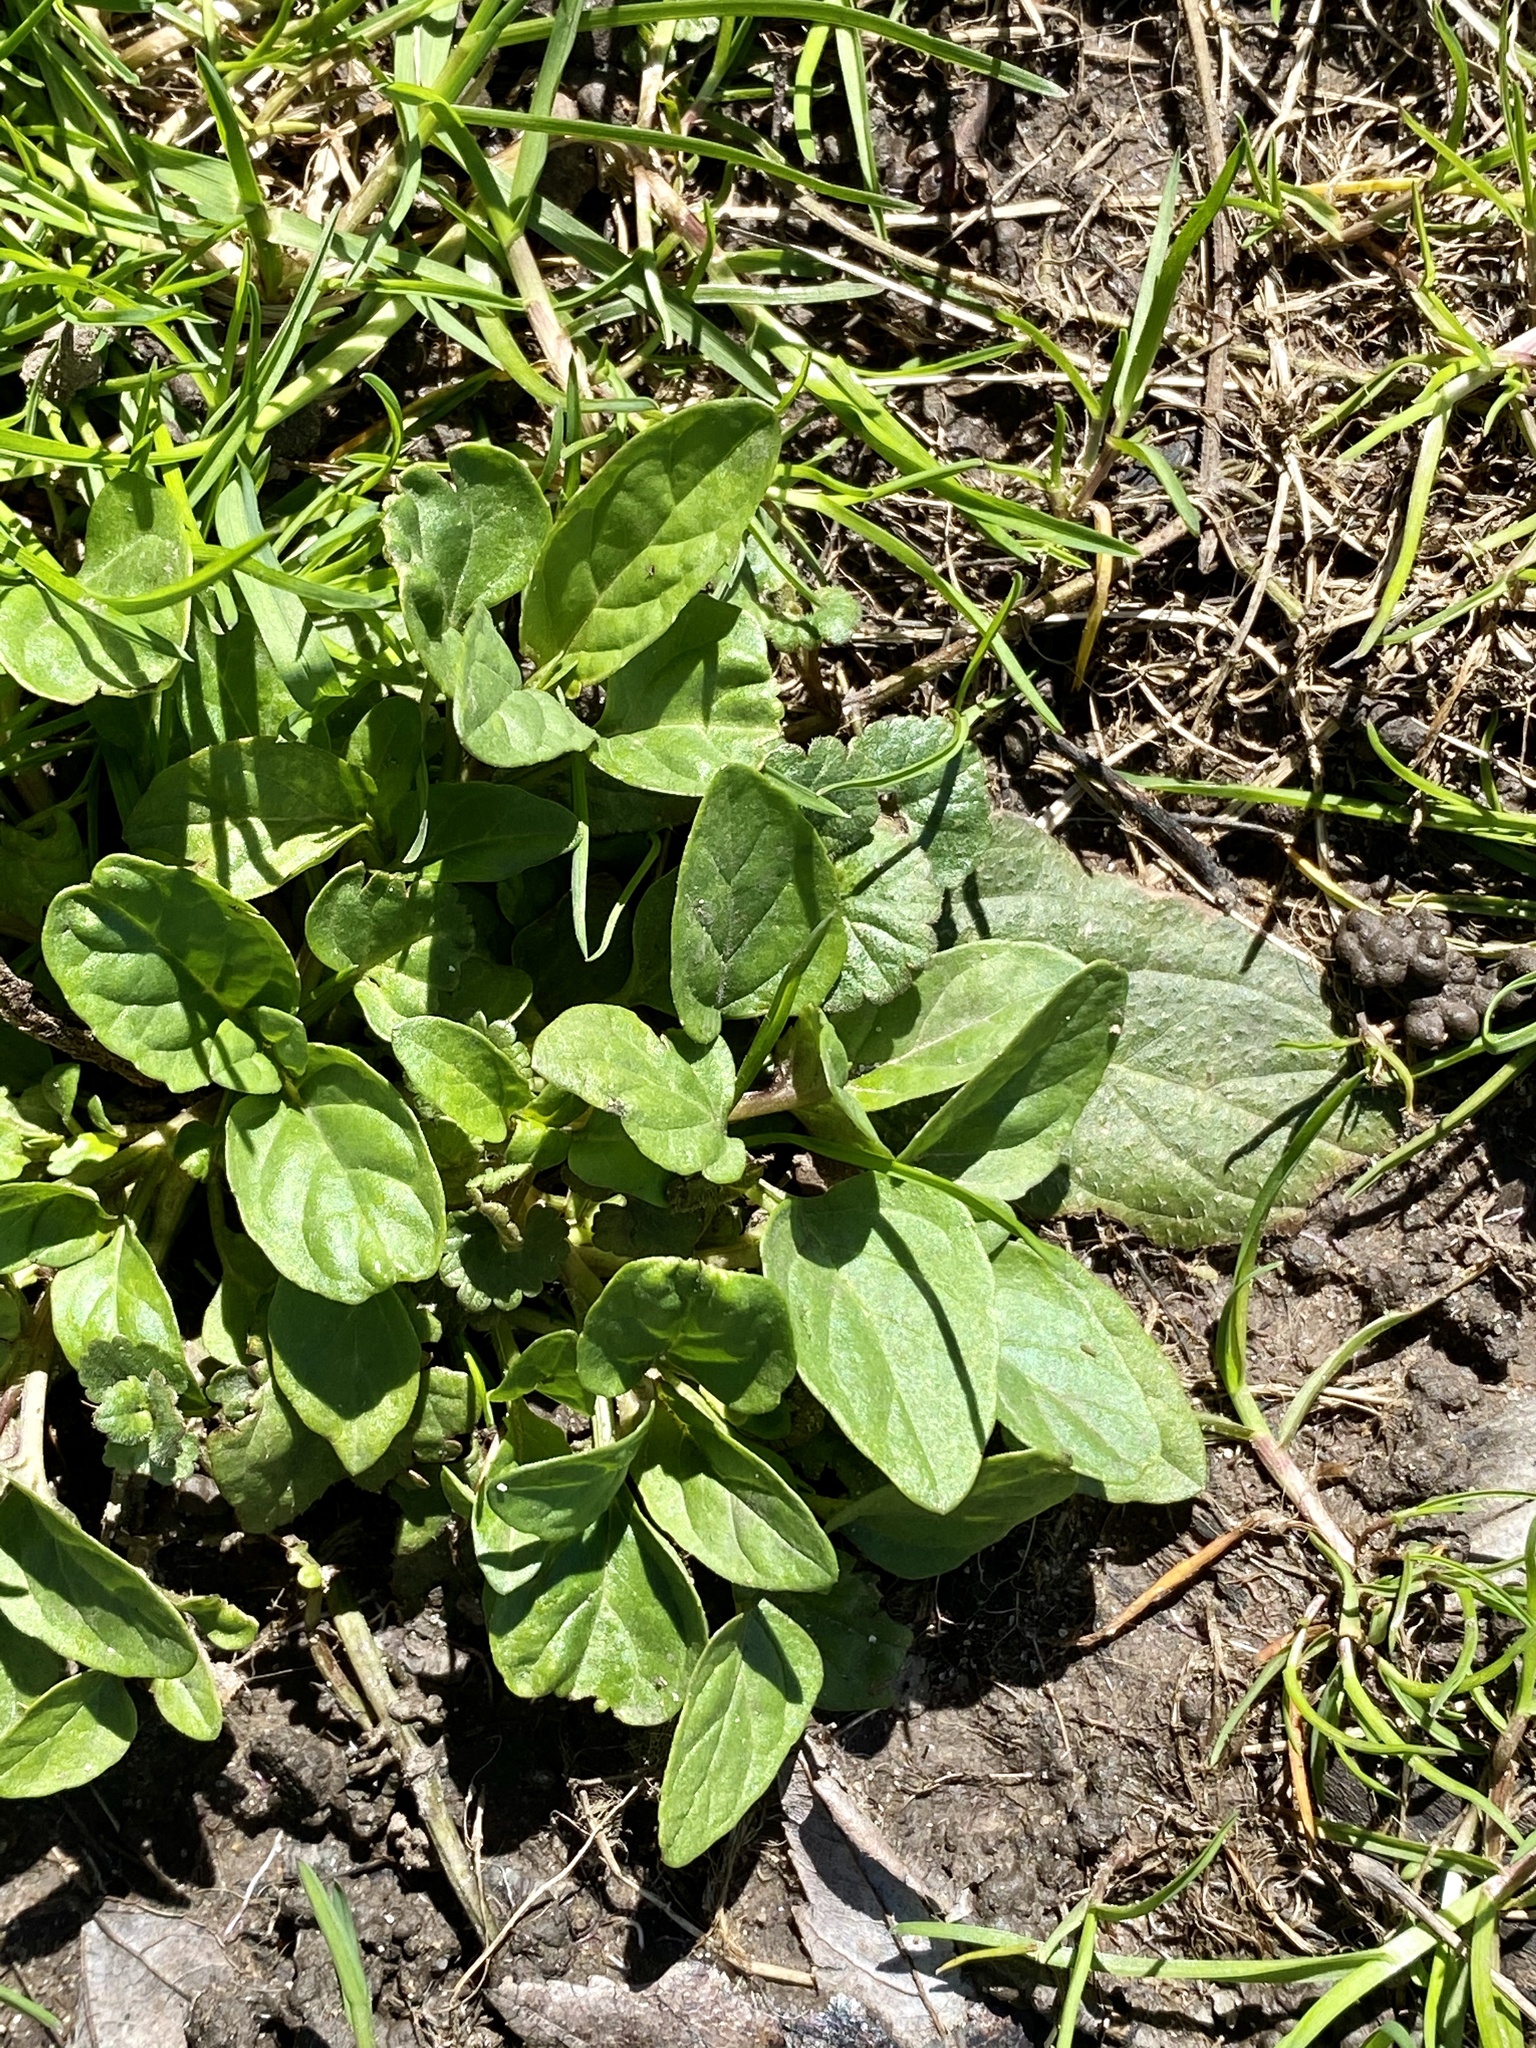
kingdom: Plantae
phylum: Tracheophyta
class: Magnoliopsida
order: Lamiales
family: Lamiaceae
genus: Prunella
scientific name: Prunella vulgaris
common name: Heal-all
